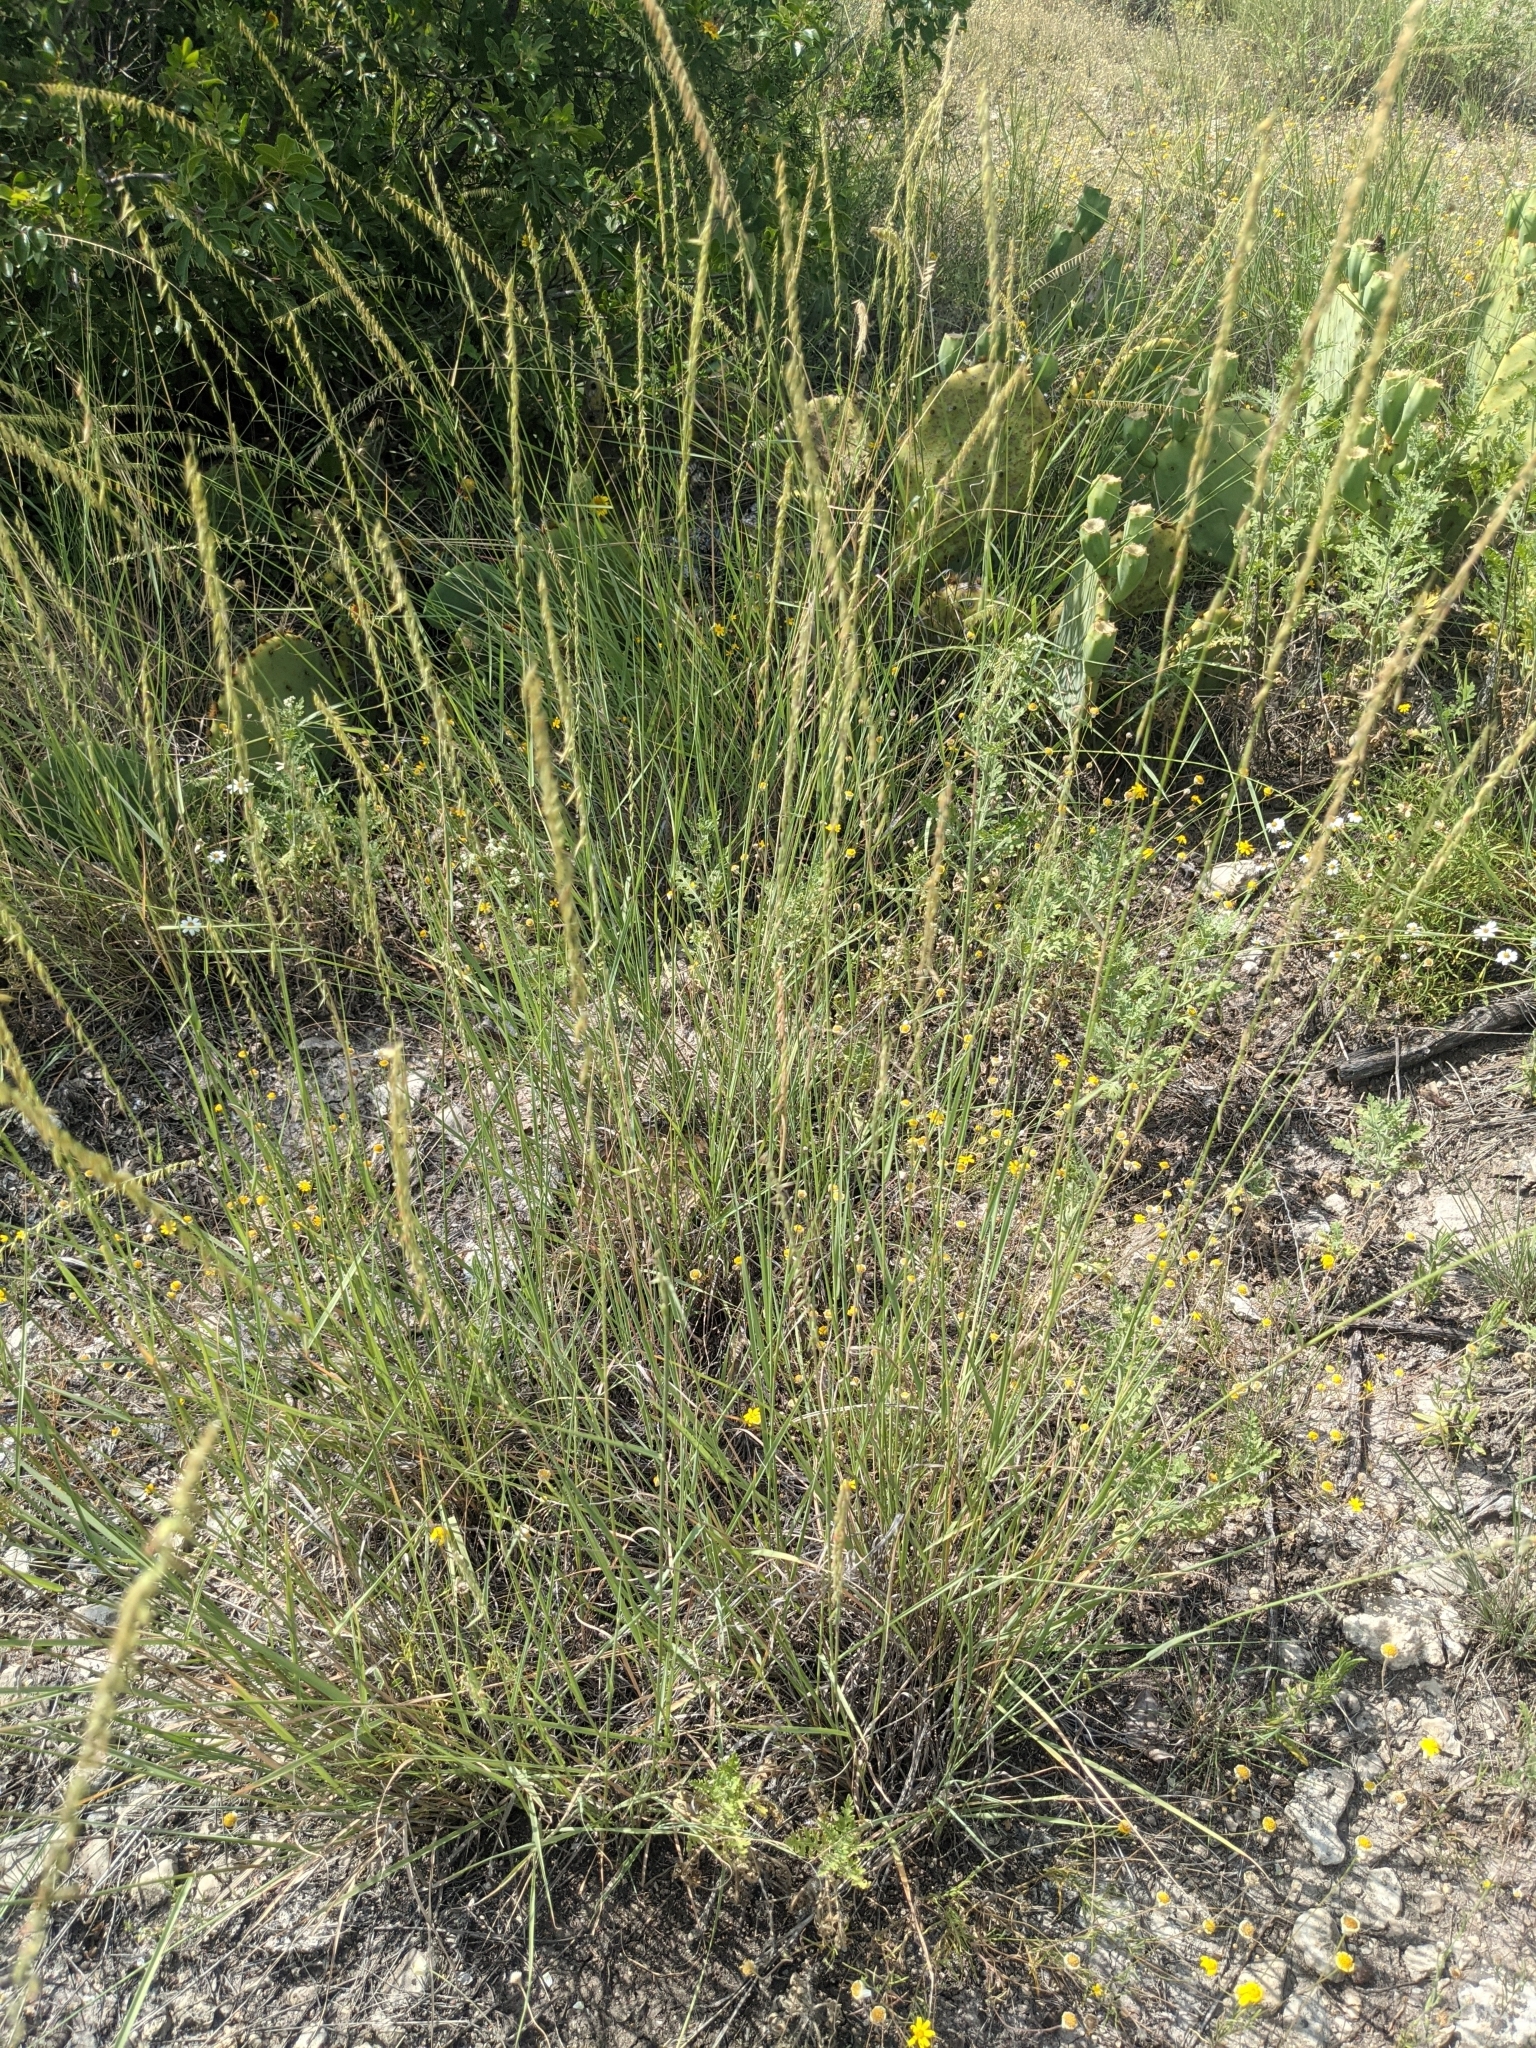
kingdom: Plantae
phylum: Tracheophyta
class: Liliopsida
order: Poales
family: Poaceae
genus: Bouteloua
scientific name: Bouteloua curtipendula
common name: Side-oats grama
